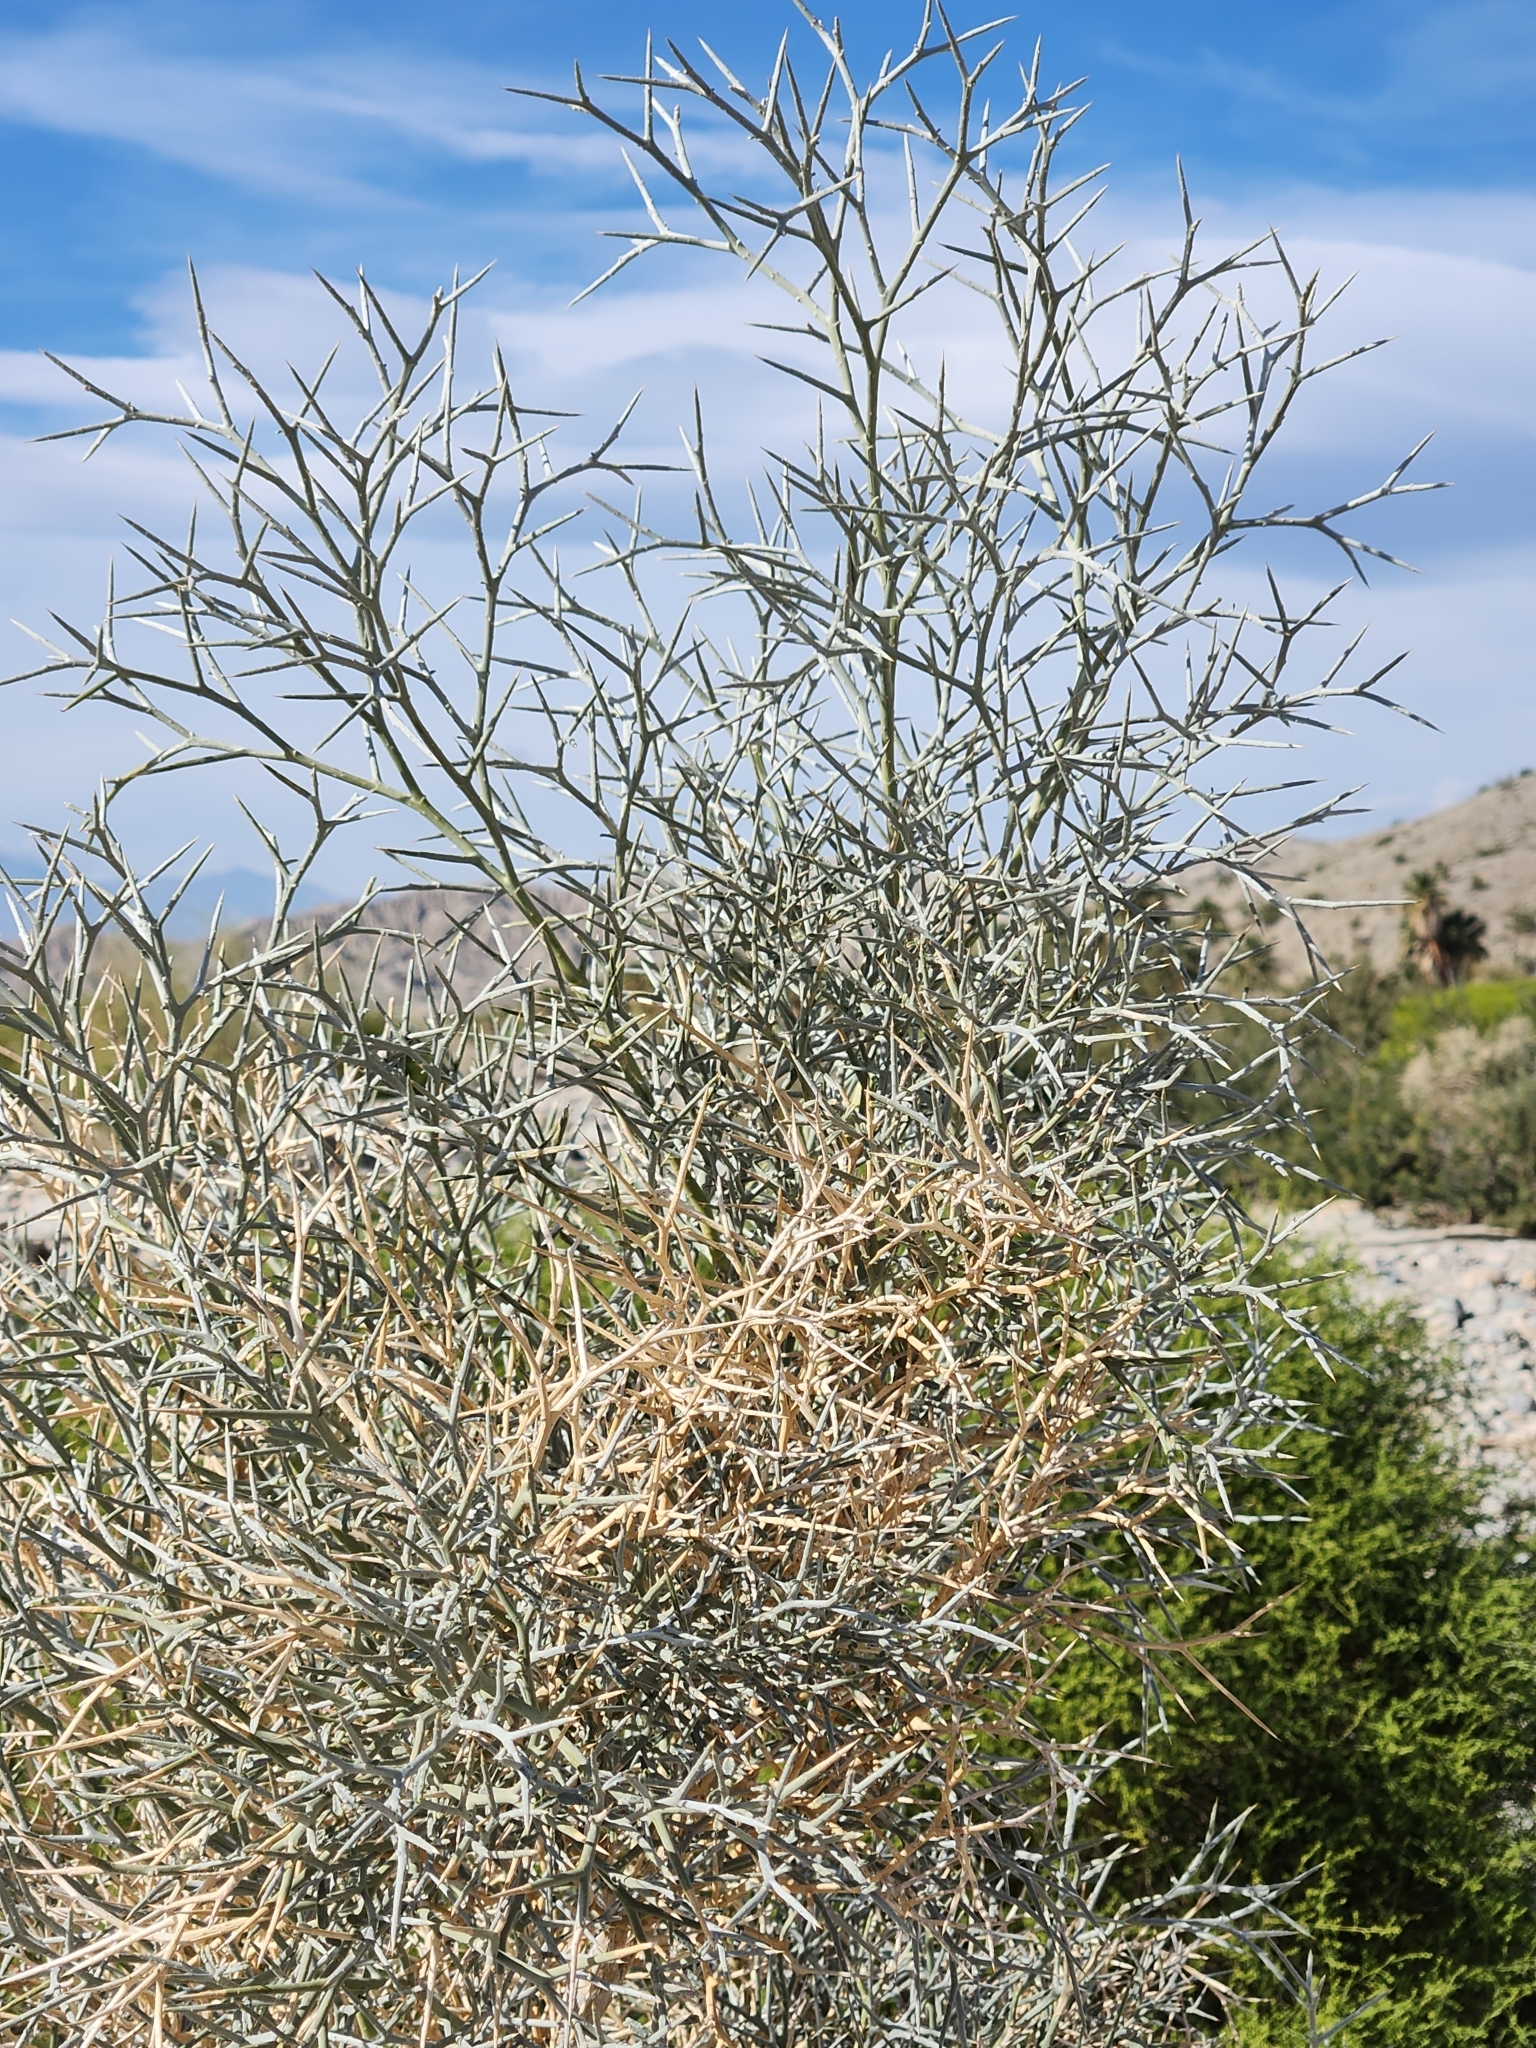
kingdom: Plantae
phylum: Tracheophyta
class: Magnoliopsida
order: Fabales
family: Fabaceae
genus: Psorothamnus
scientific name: Psorothamnus spinosus
